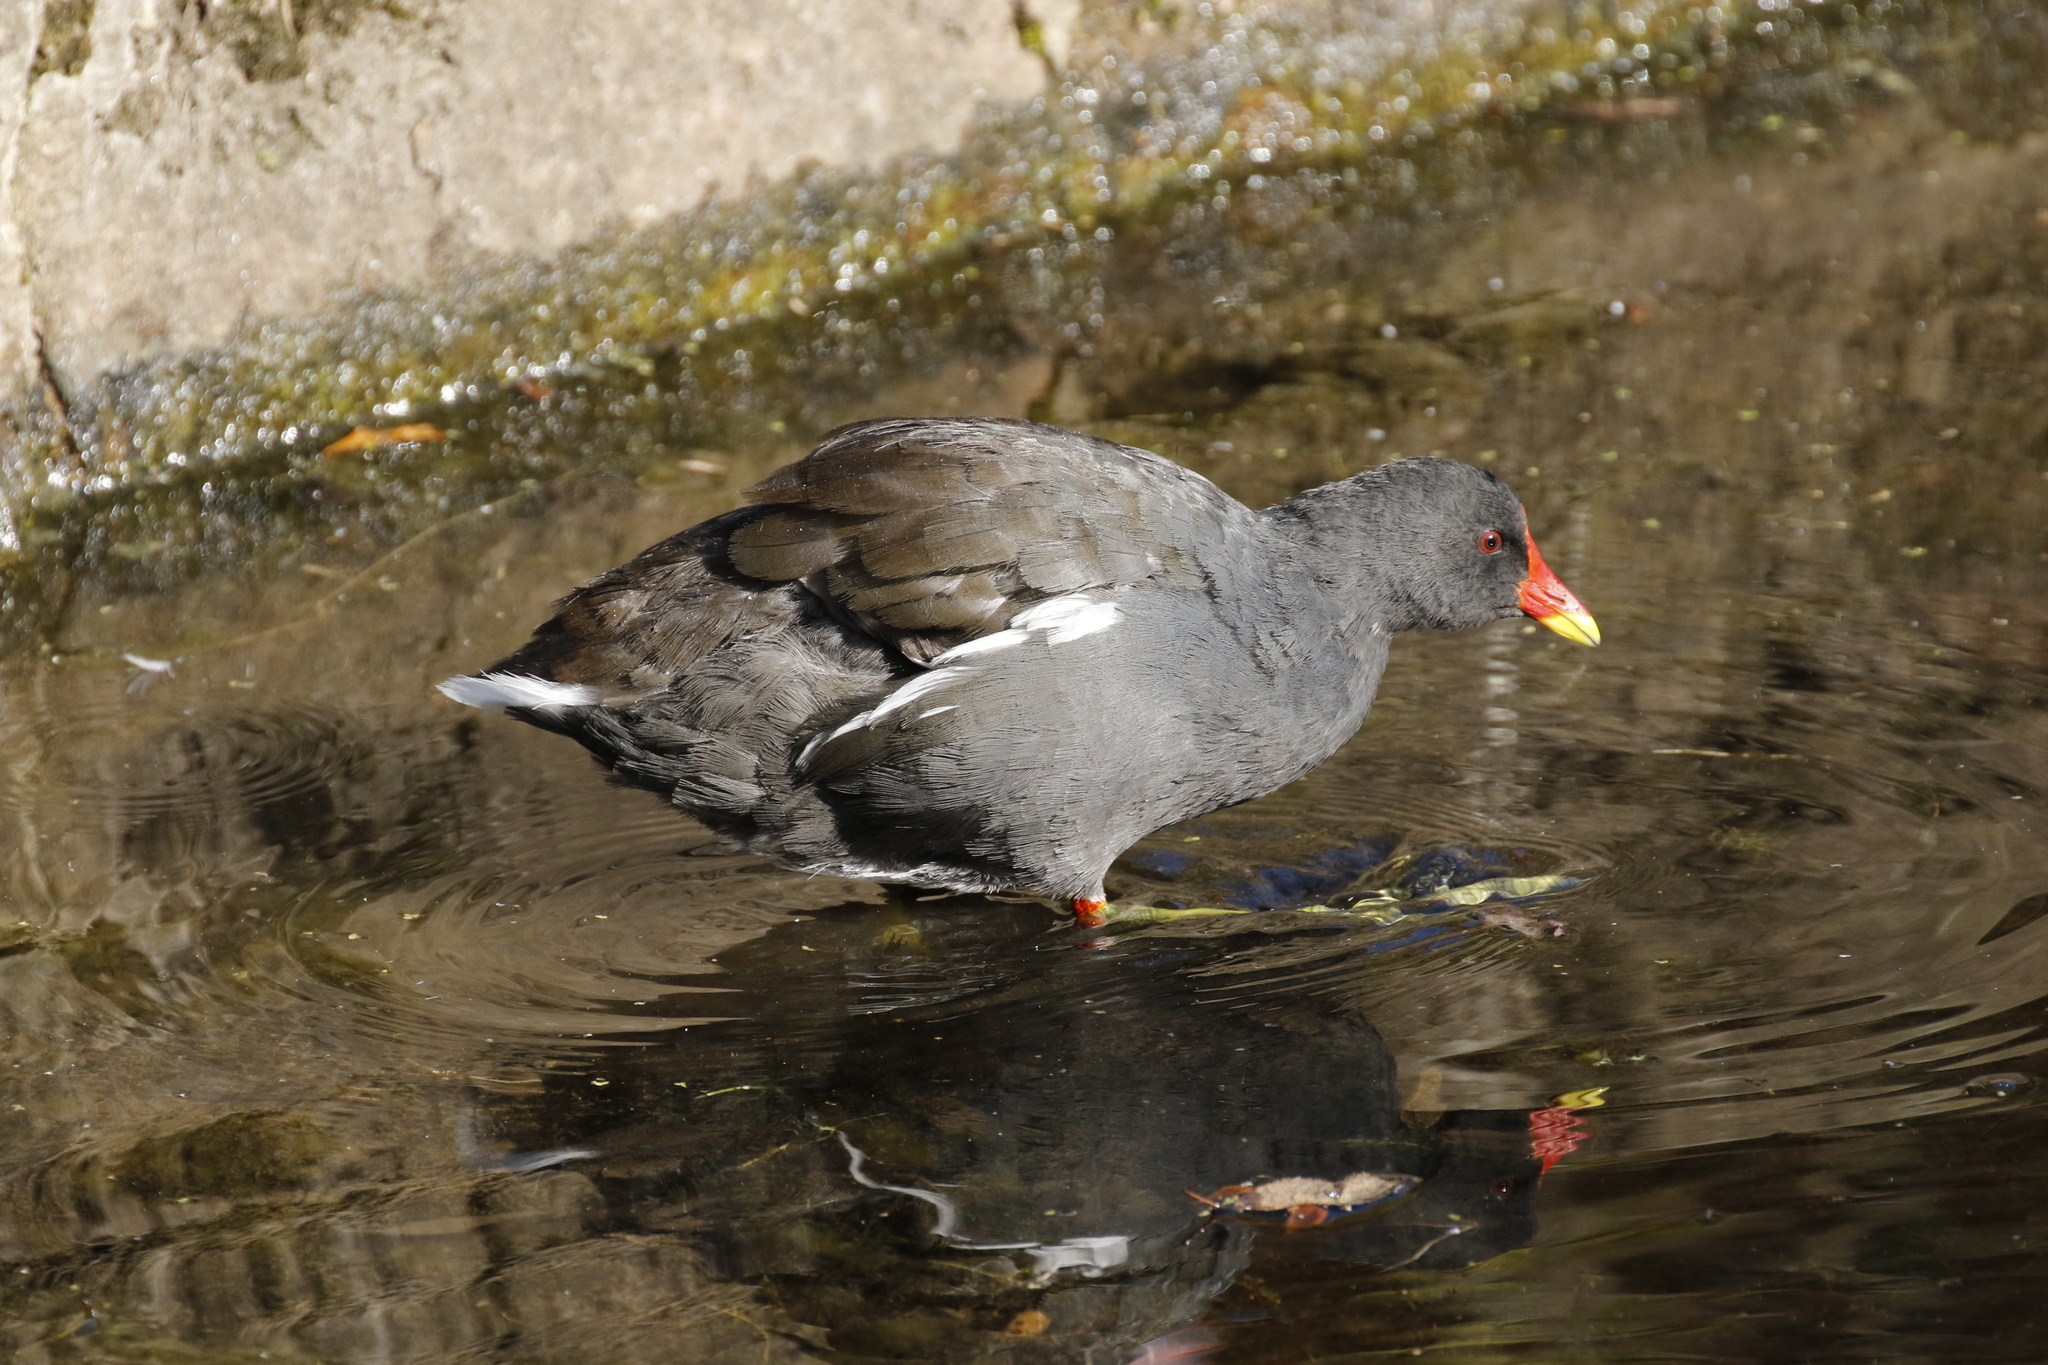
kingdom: Animalia
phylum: Chordata
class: Aves
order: Gruiformes
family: Rallidae
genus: Gallinula
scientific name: Gallinula chloropus
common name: Common moorhen
